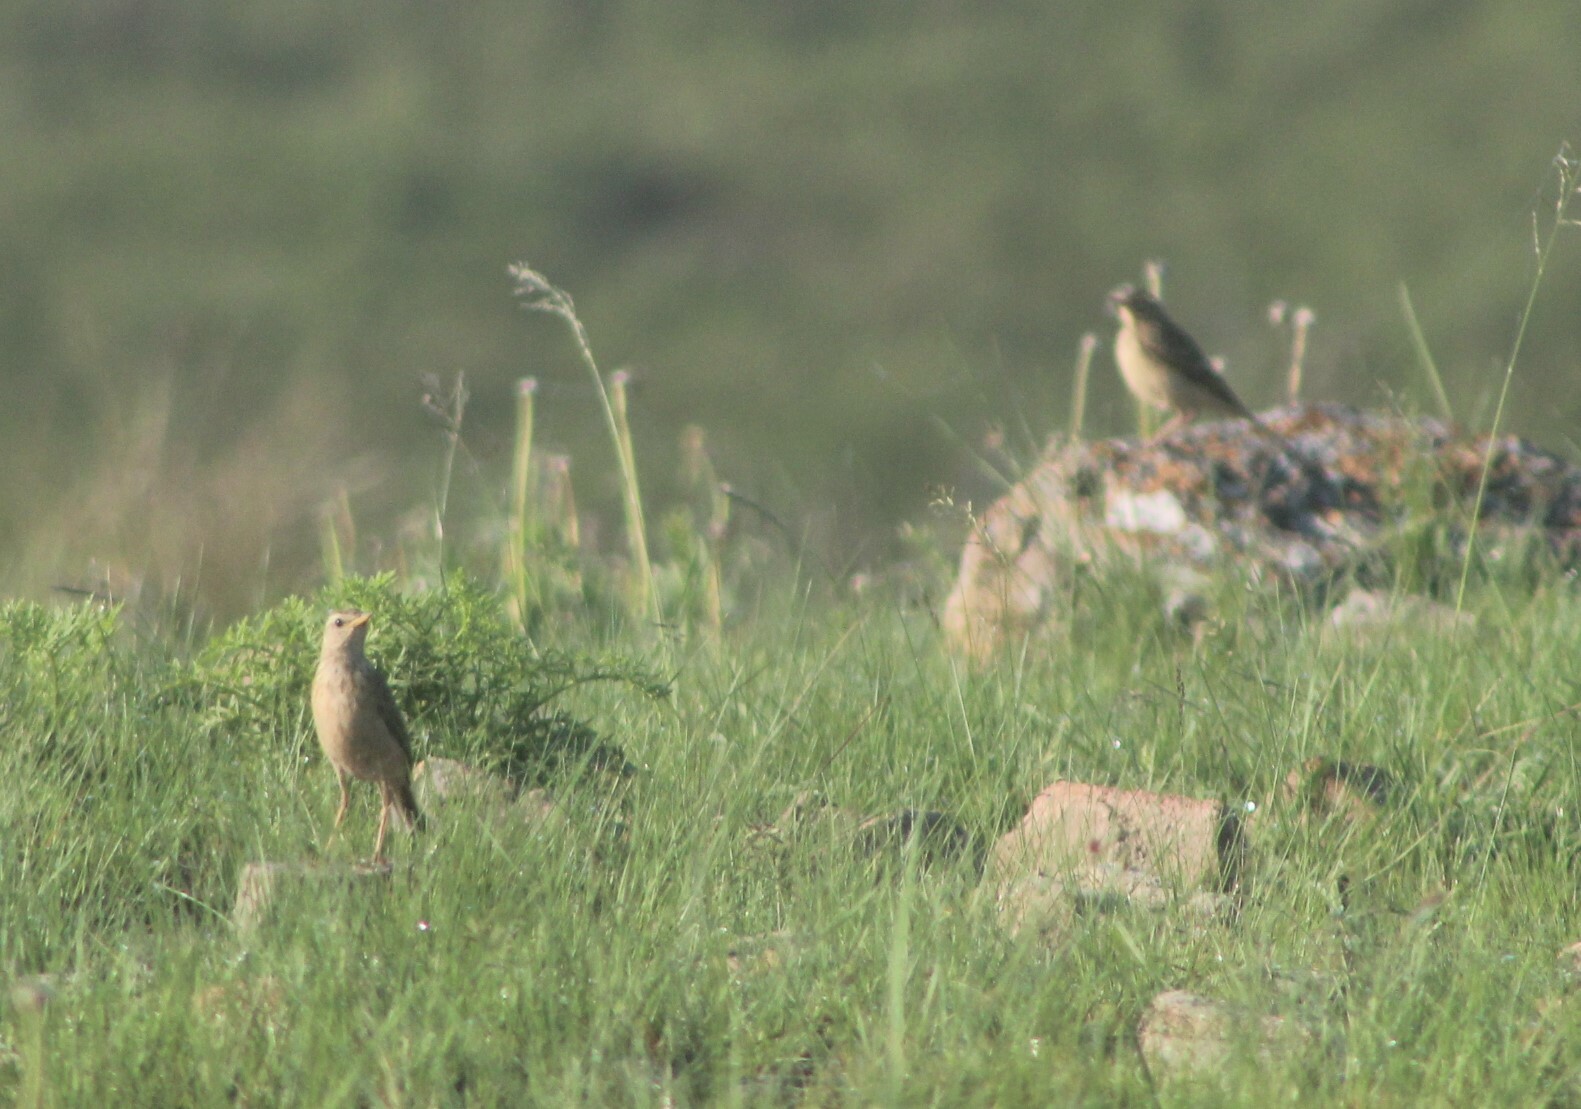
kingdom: Animalia
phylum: Chordata
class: Aves
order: Passeriformes
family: Motacillidae
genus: Anthus
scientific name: Anthus cinnamomeus
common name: African pipit
